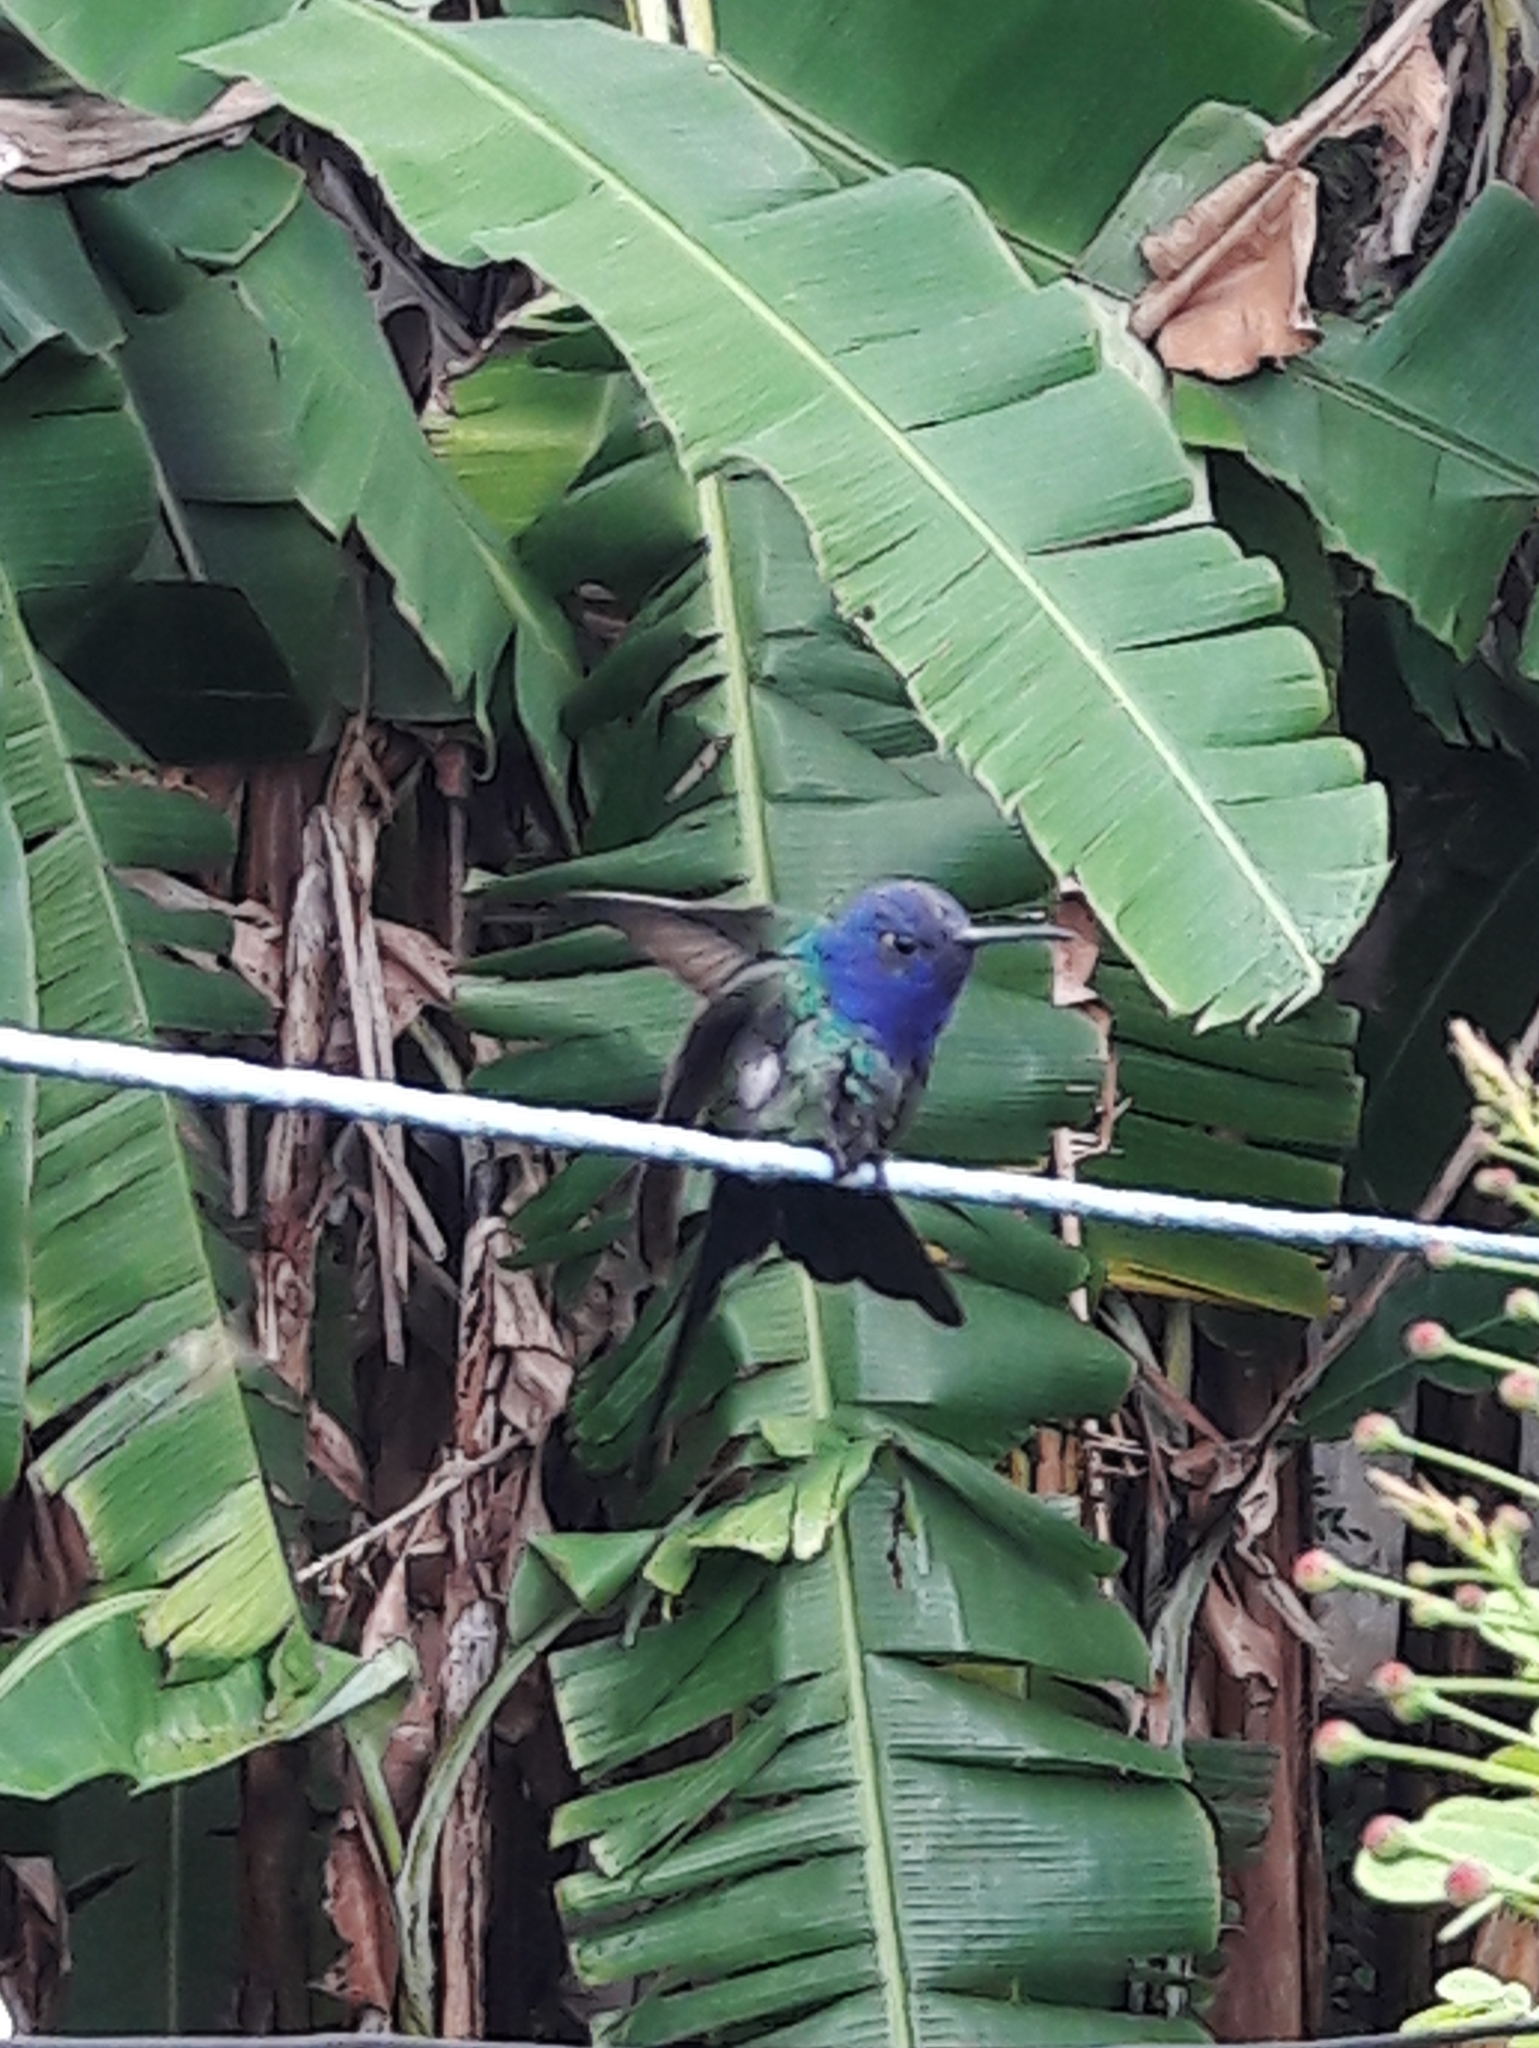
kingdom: Animalia
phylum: Chordata
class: Aves
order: Apodiformes
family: Trochilidae
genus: Eupetomena
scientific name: Eupetomena macroura
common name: Swallow-tailed hummingbird
